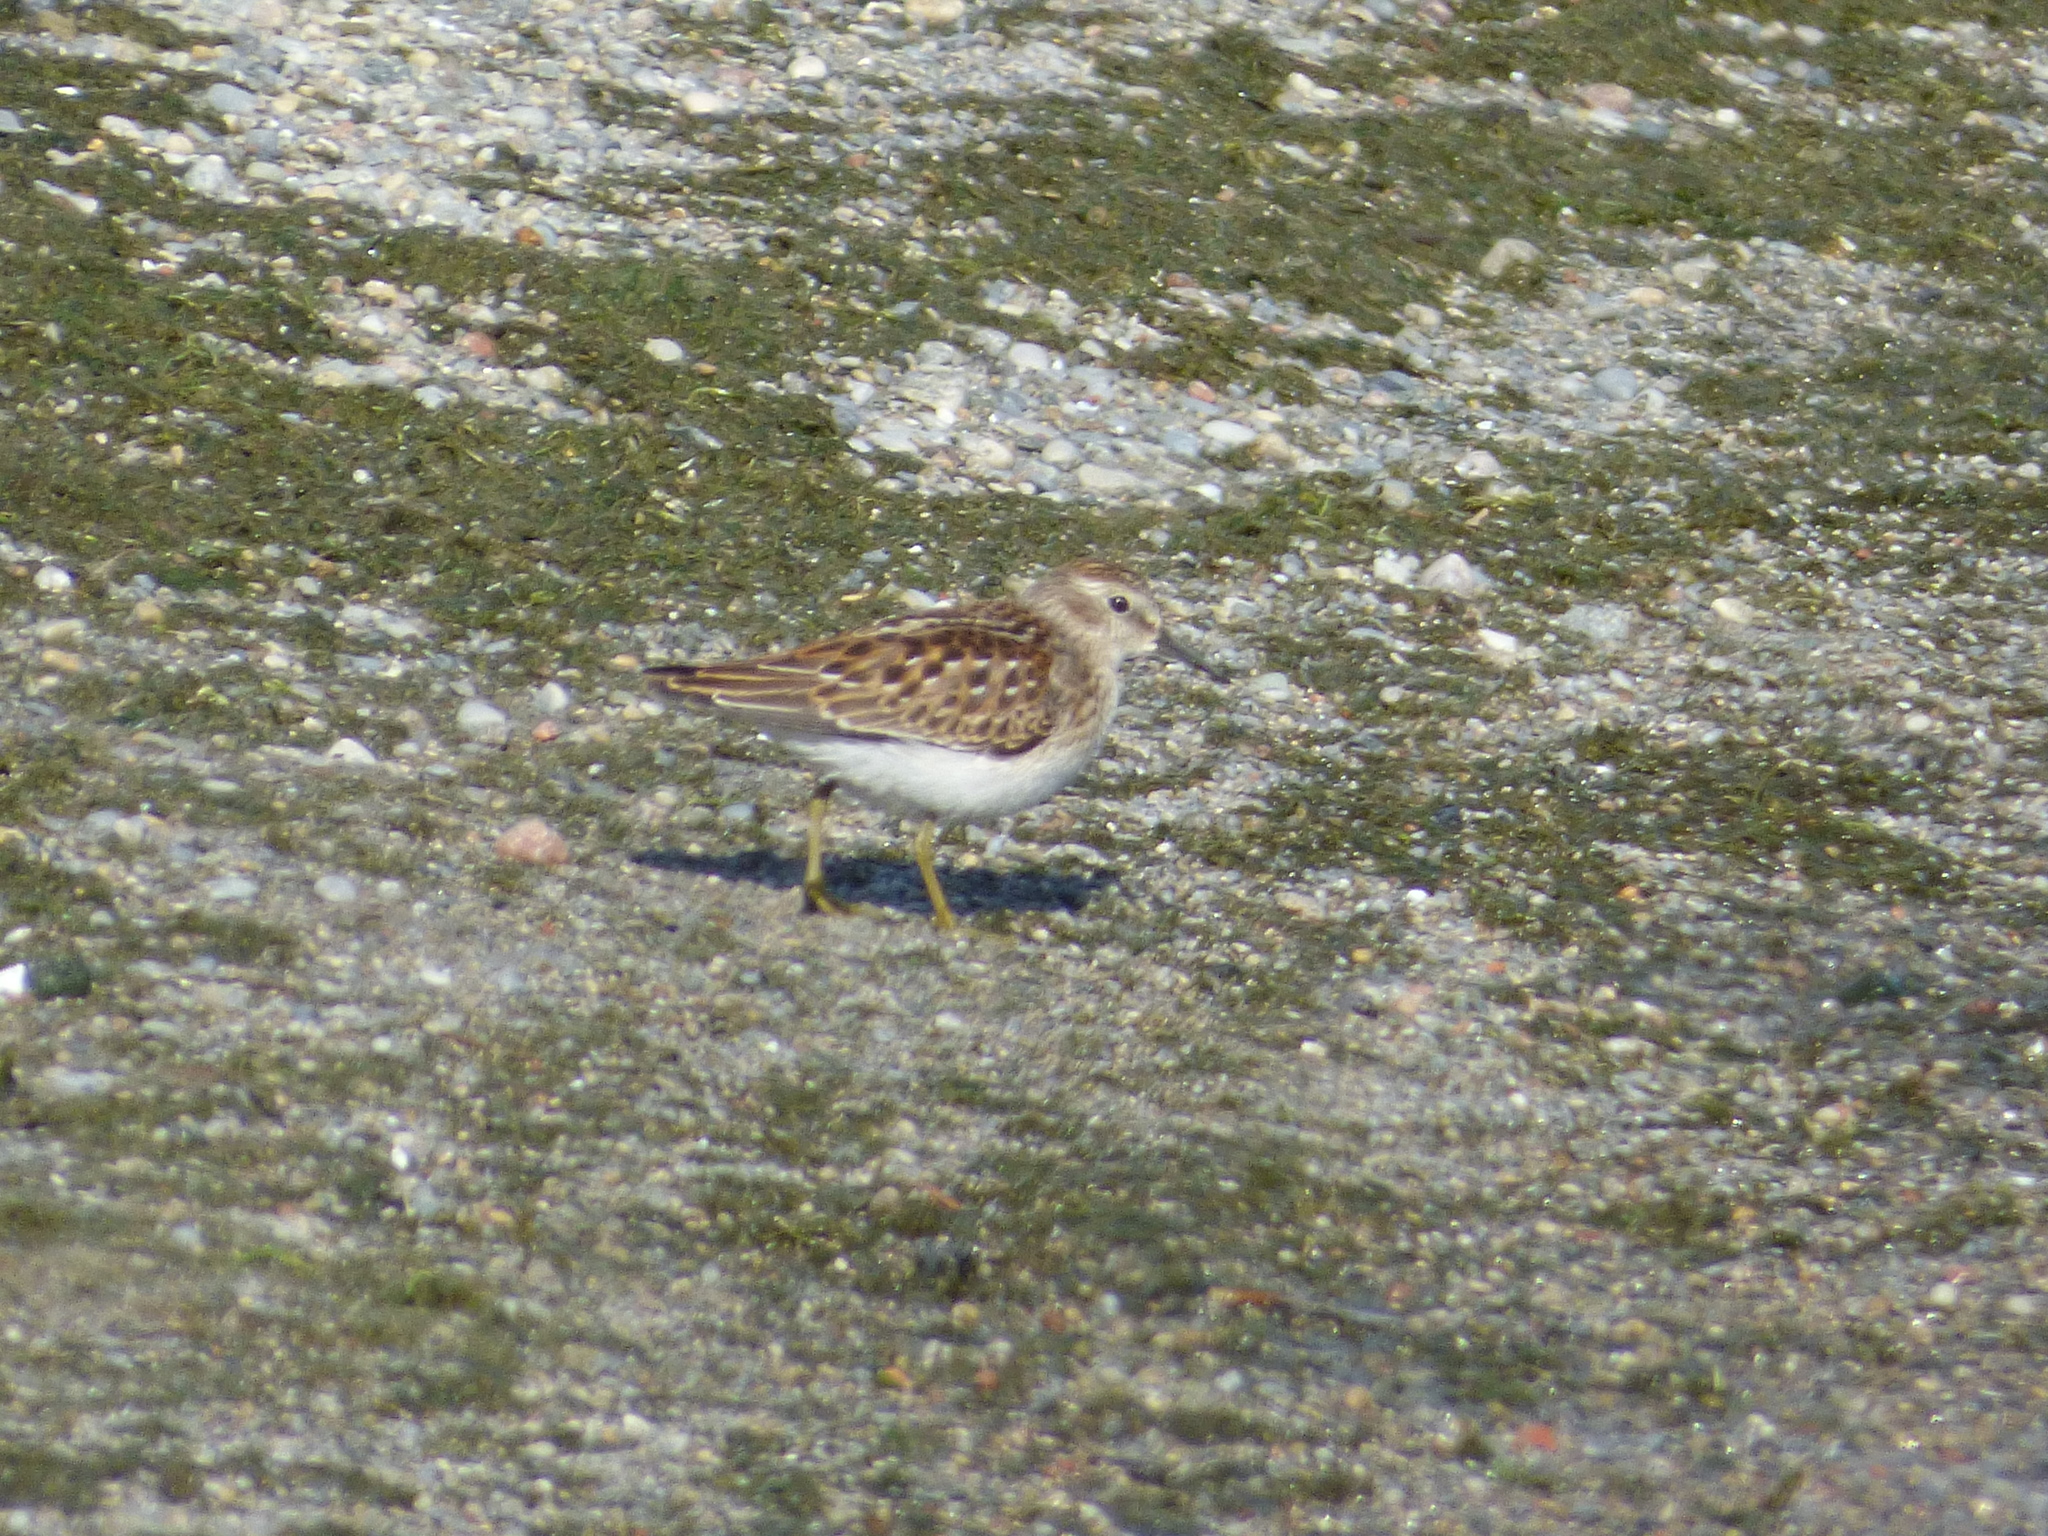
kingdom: Animalia
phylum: Chordata
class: Aves
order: Charadriiformes
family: Scolopacidae
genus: Calidris
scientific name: Calidris minutilla
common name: Least sandpiper
